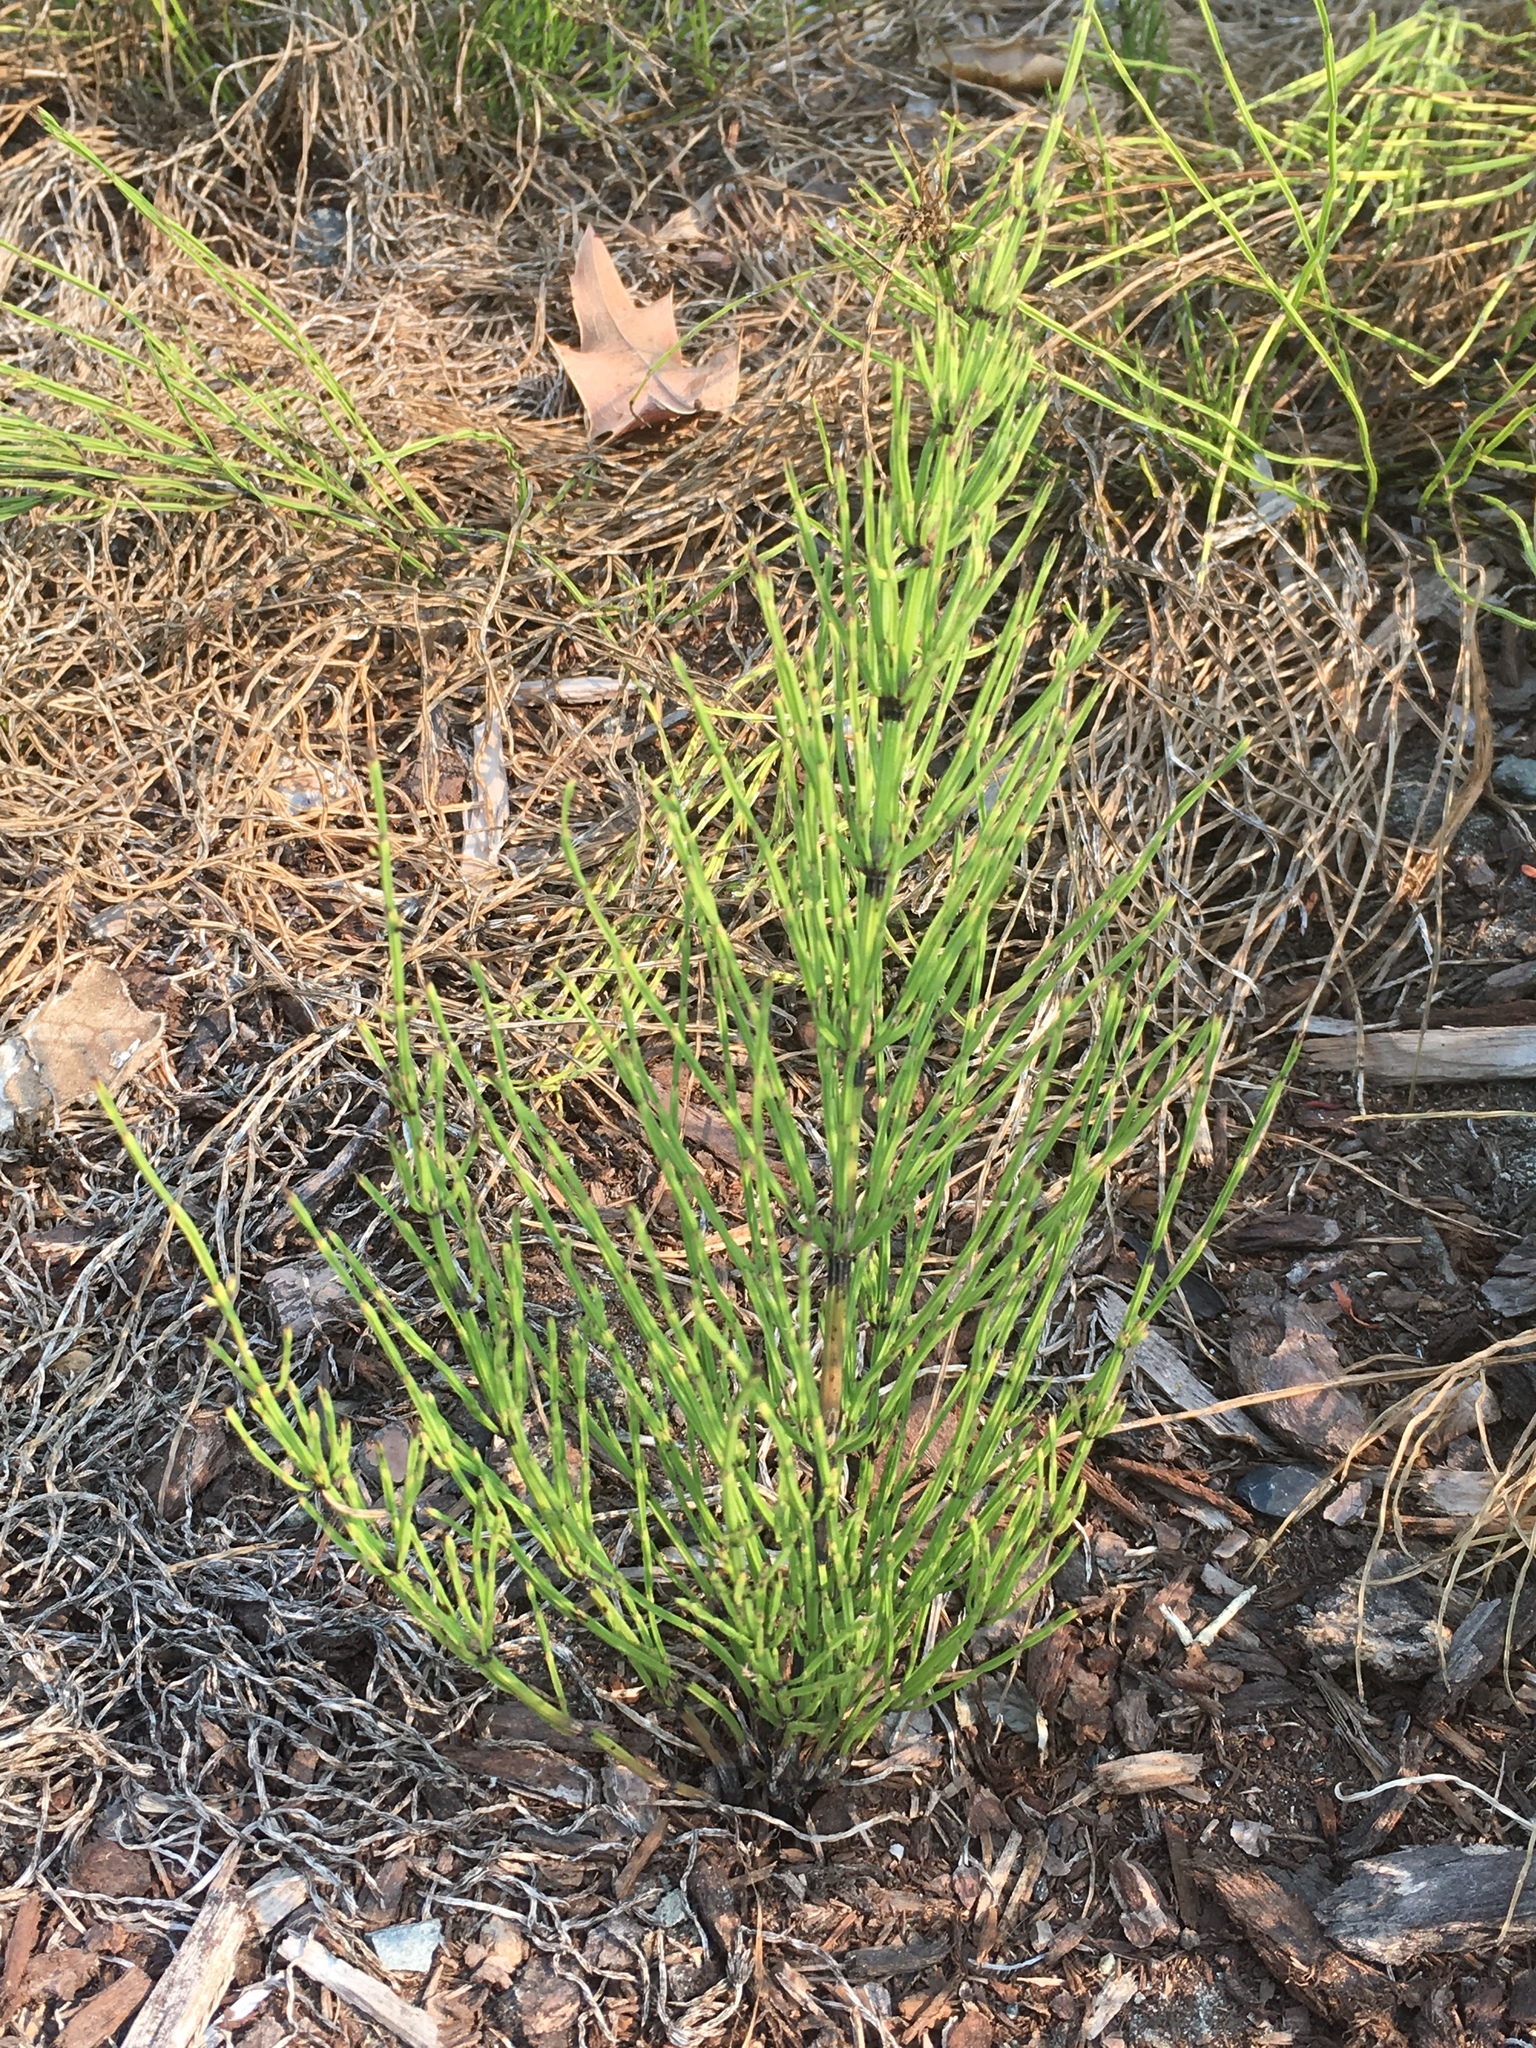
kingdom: Plantae
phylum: Tracheophyta
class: Polypodiopsida
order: Equisetales
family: Equisetaceae
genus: Equisetum
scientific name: Equisetum arvense
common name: Field horsetail
